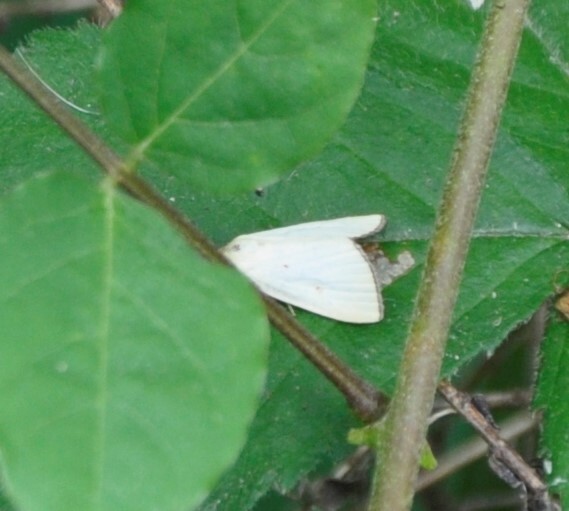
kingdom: Animalia
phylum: Arthropoda
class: Insecta
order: Lepidoptera
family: Noctuidae
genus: Marimatha
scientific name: Marimatha nigrofimbria
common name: Black-bordered lemon moth
